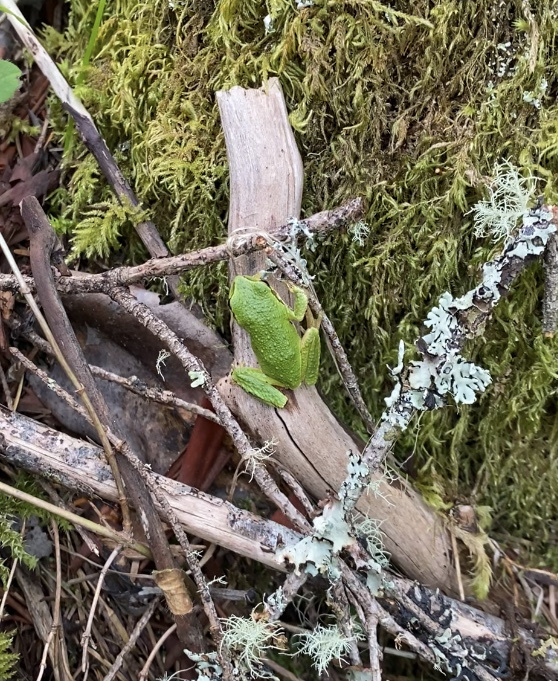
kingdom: Animalia
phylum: Chordata
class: Amphibia
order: Anura
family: Hylidae
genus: Pseudacris
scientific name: Pseudacris regilla
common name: Pacific chorus frog
